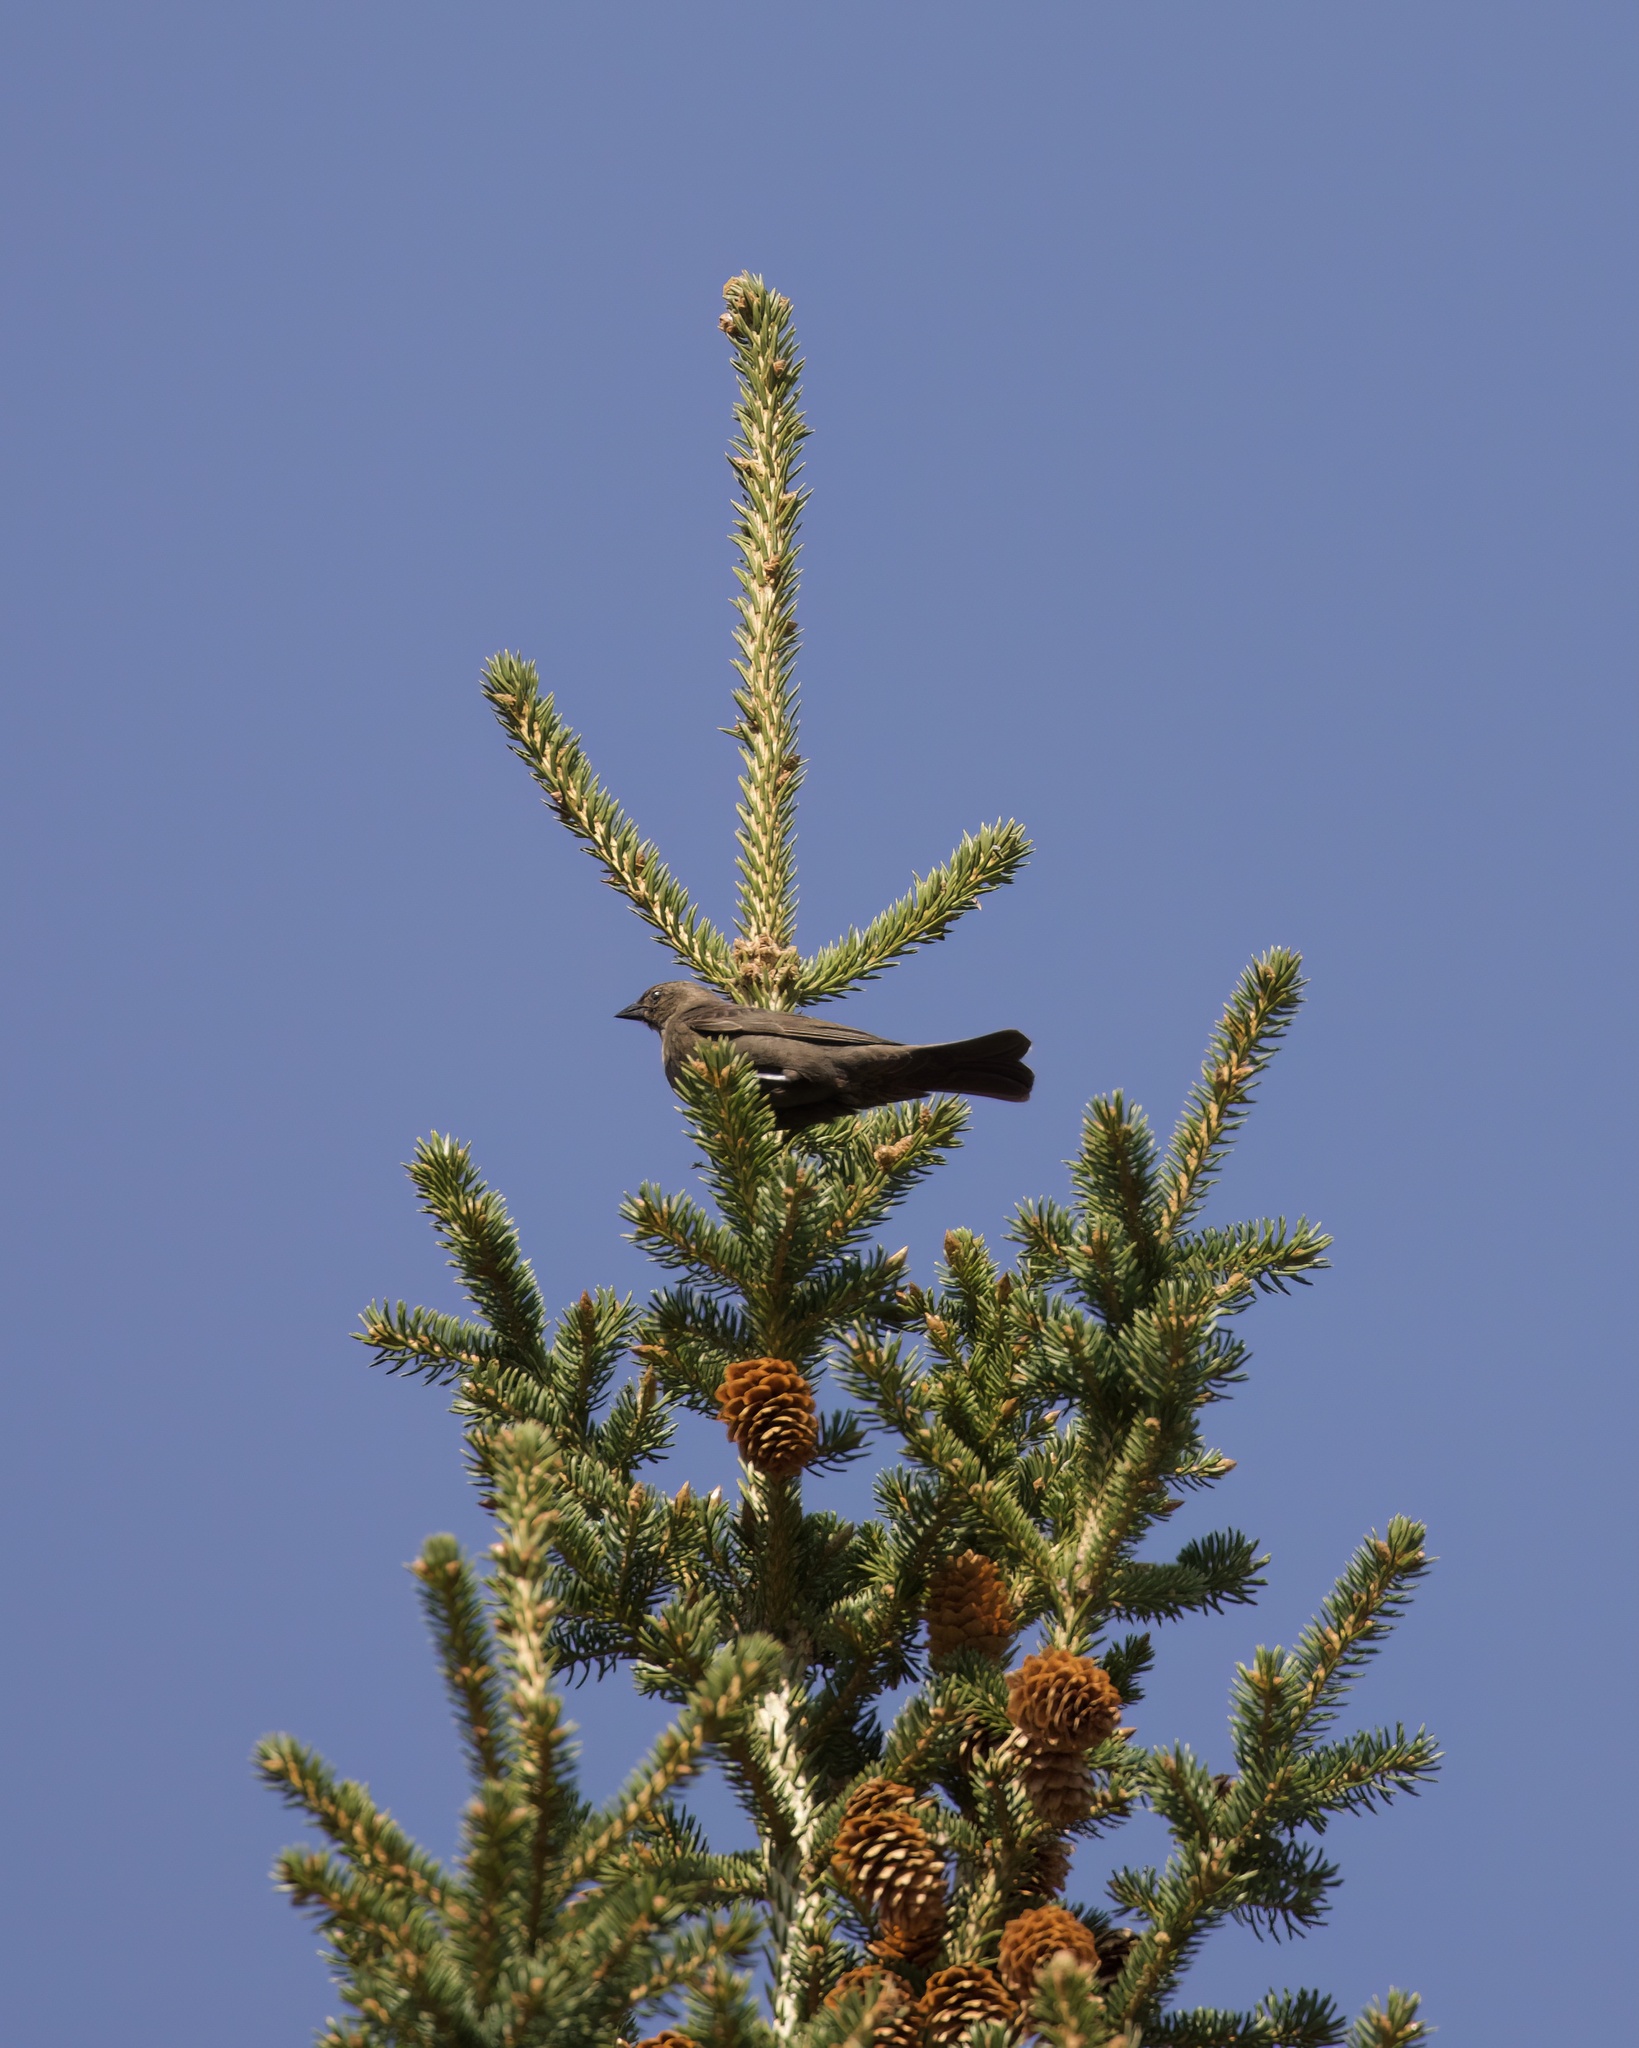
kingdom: Animalia
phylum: Chordata
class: Aves
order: Passeriformes
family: Icteridae
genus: Euphagus
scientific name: Euphagus cyanocephalus
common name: Brewer's blackbird
